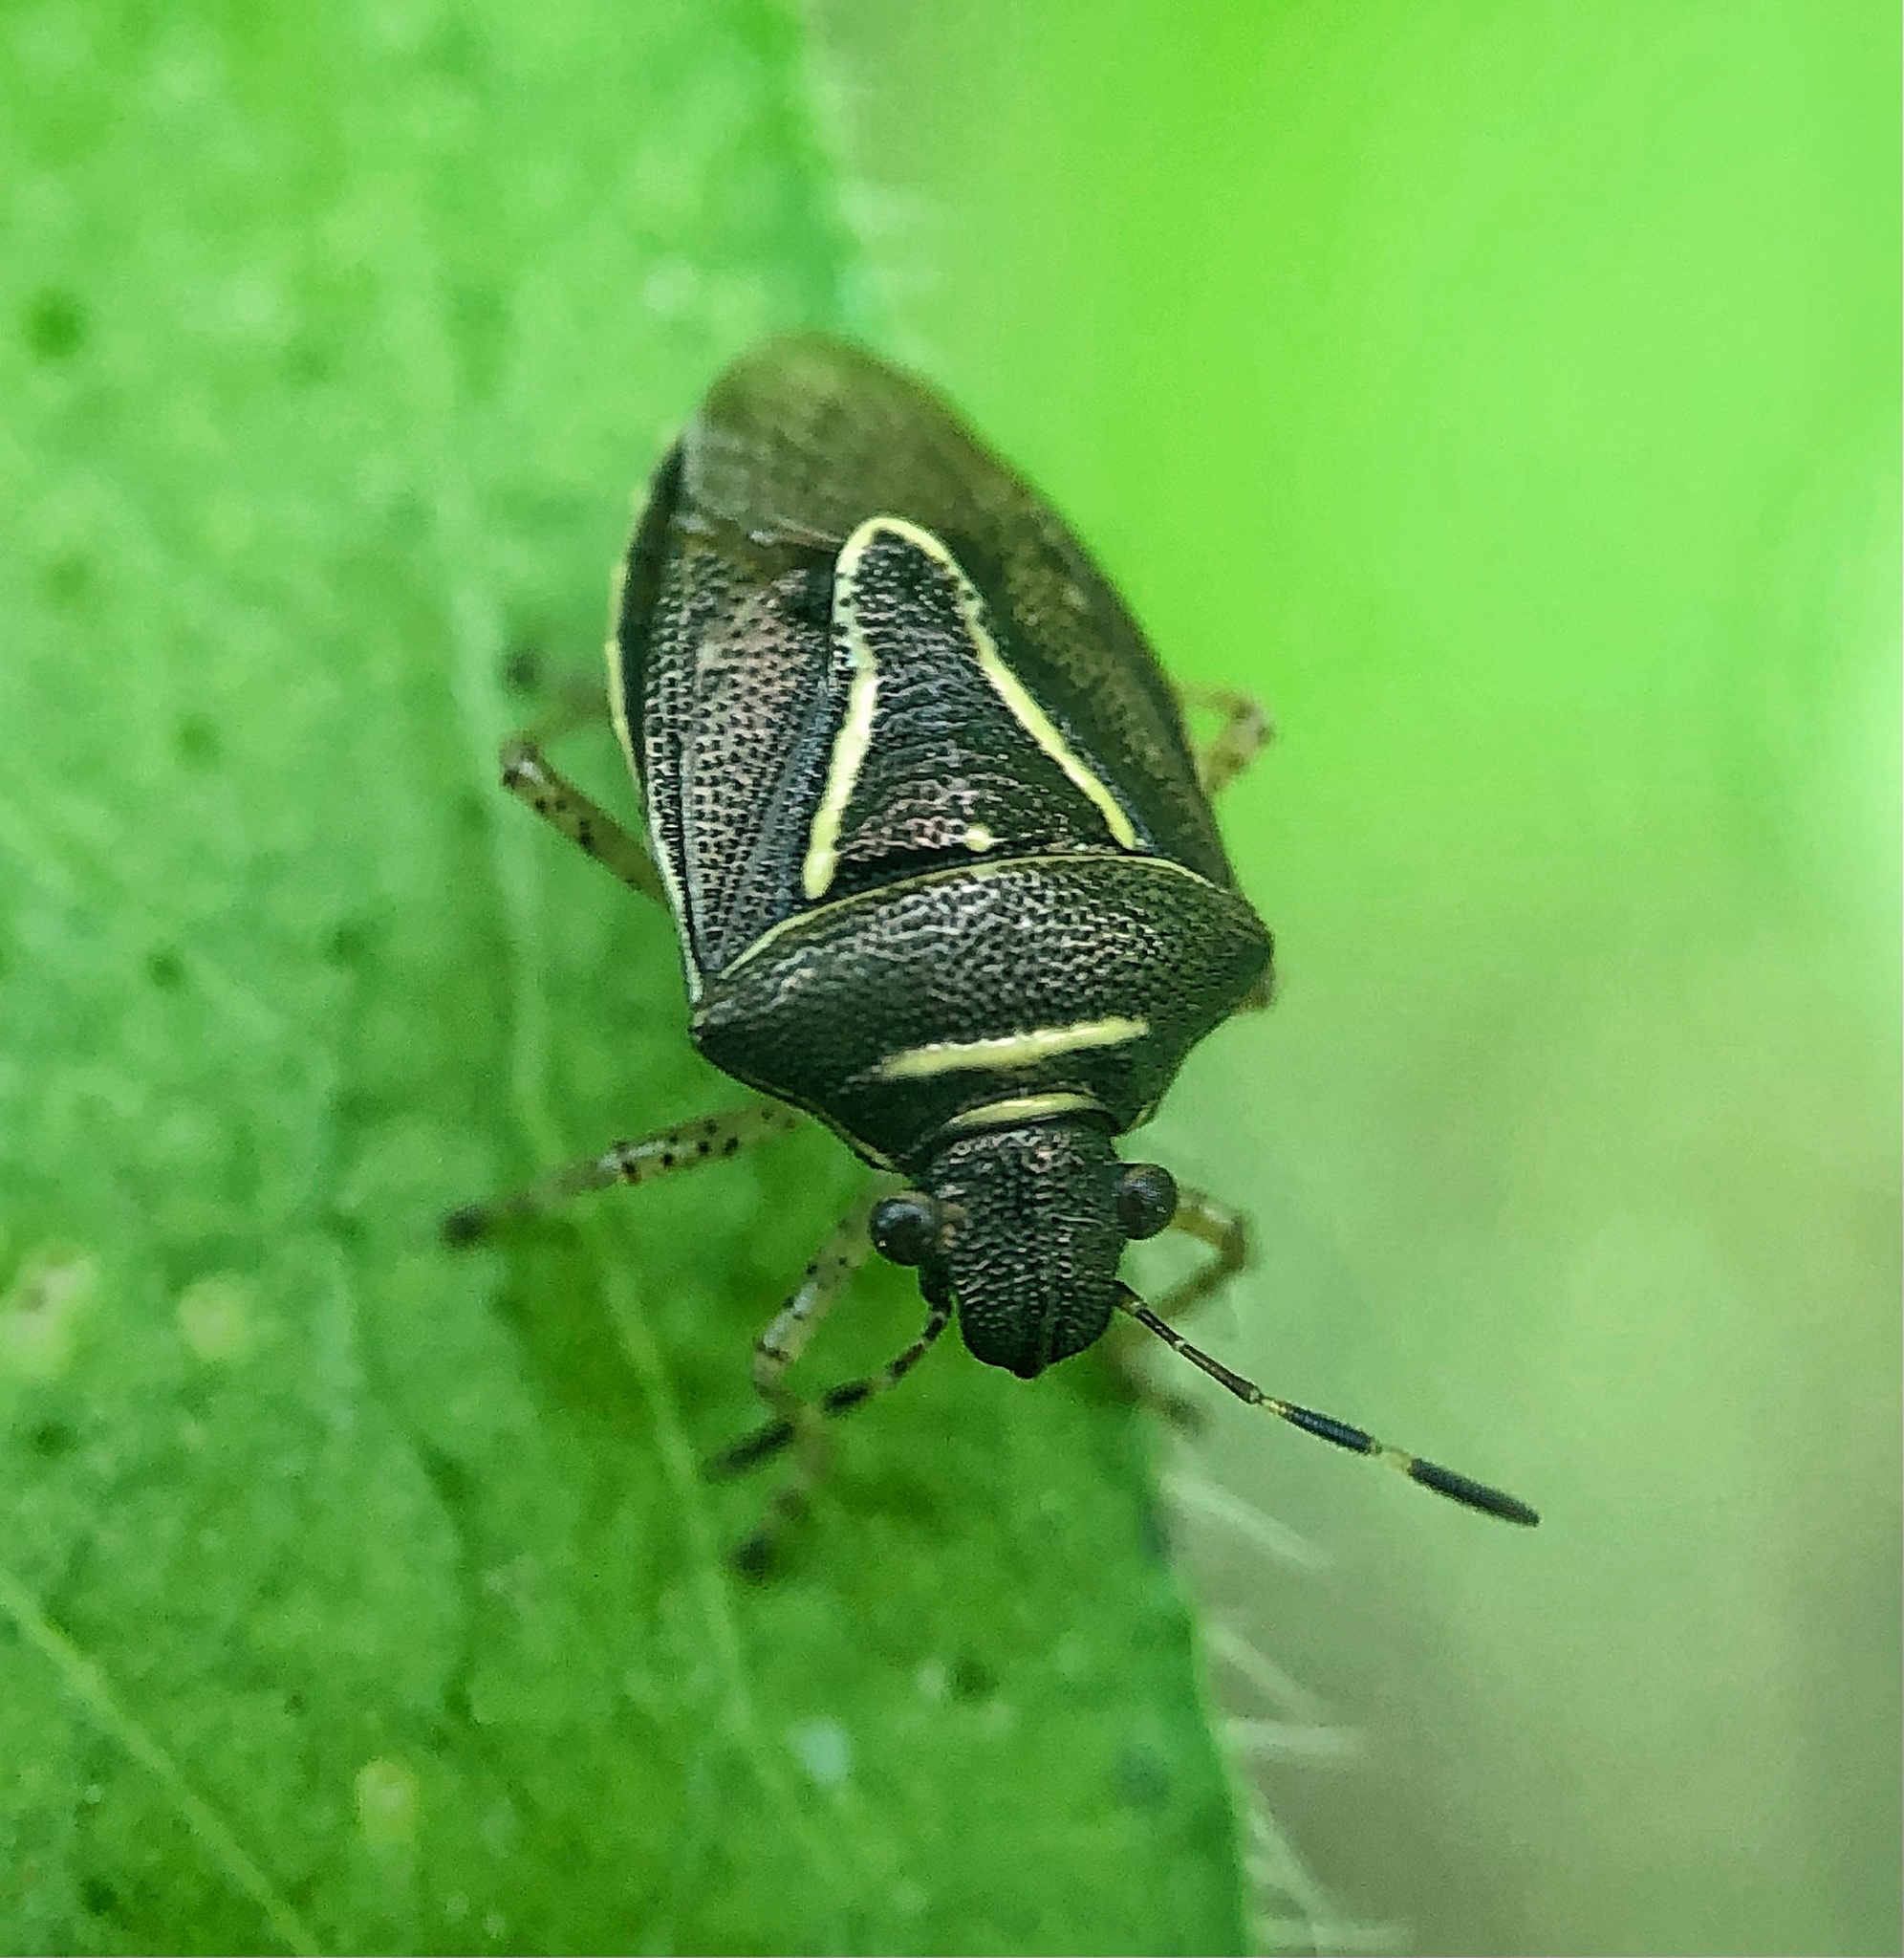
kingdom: Animalia
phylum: Arthropoda
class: Insecta
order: Hemiptera
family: Pentatomidae
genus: Mormidea
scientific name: Mormidea lugens
